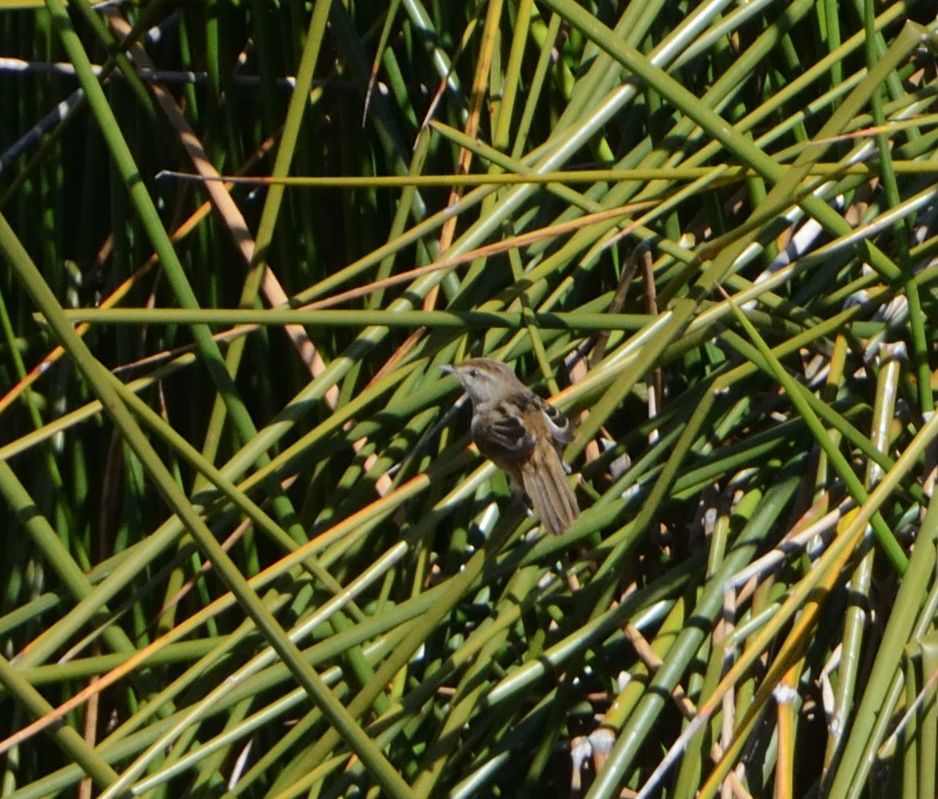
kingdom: Animalia
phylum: Chordata
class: Aves
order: Passeriformes
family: Locustellidae
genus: Megalurus
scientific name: Megalurus gramineus
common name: Little grassbird
